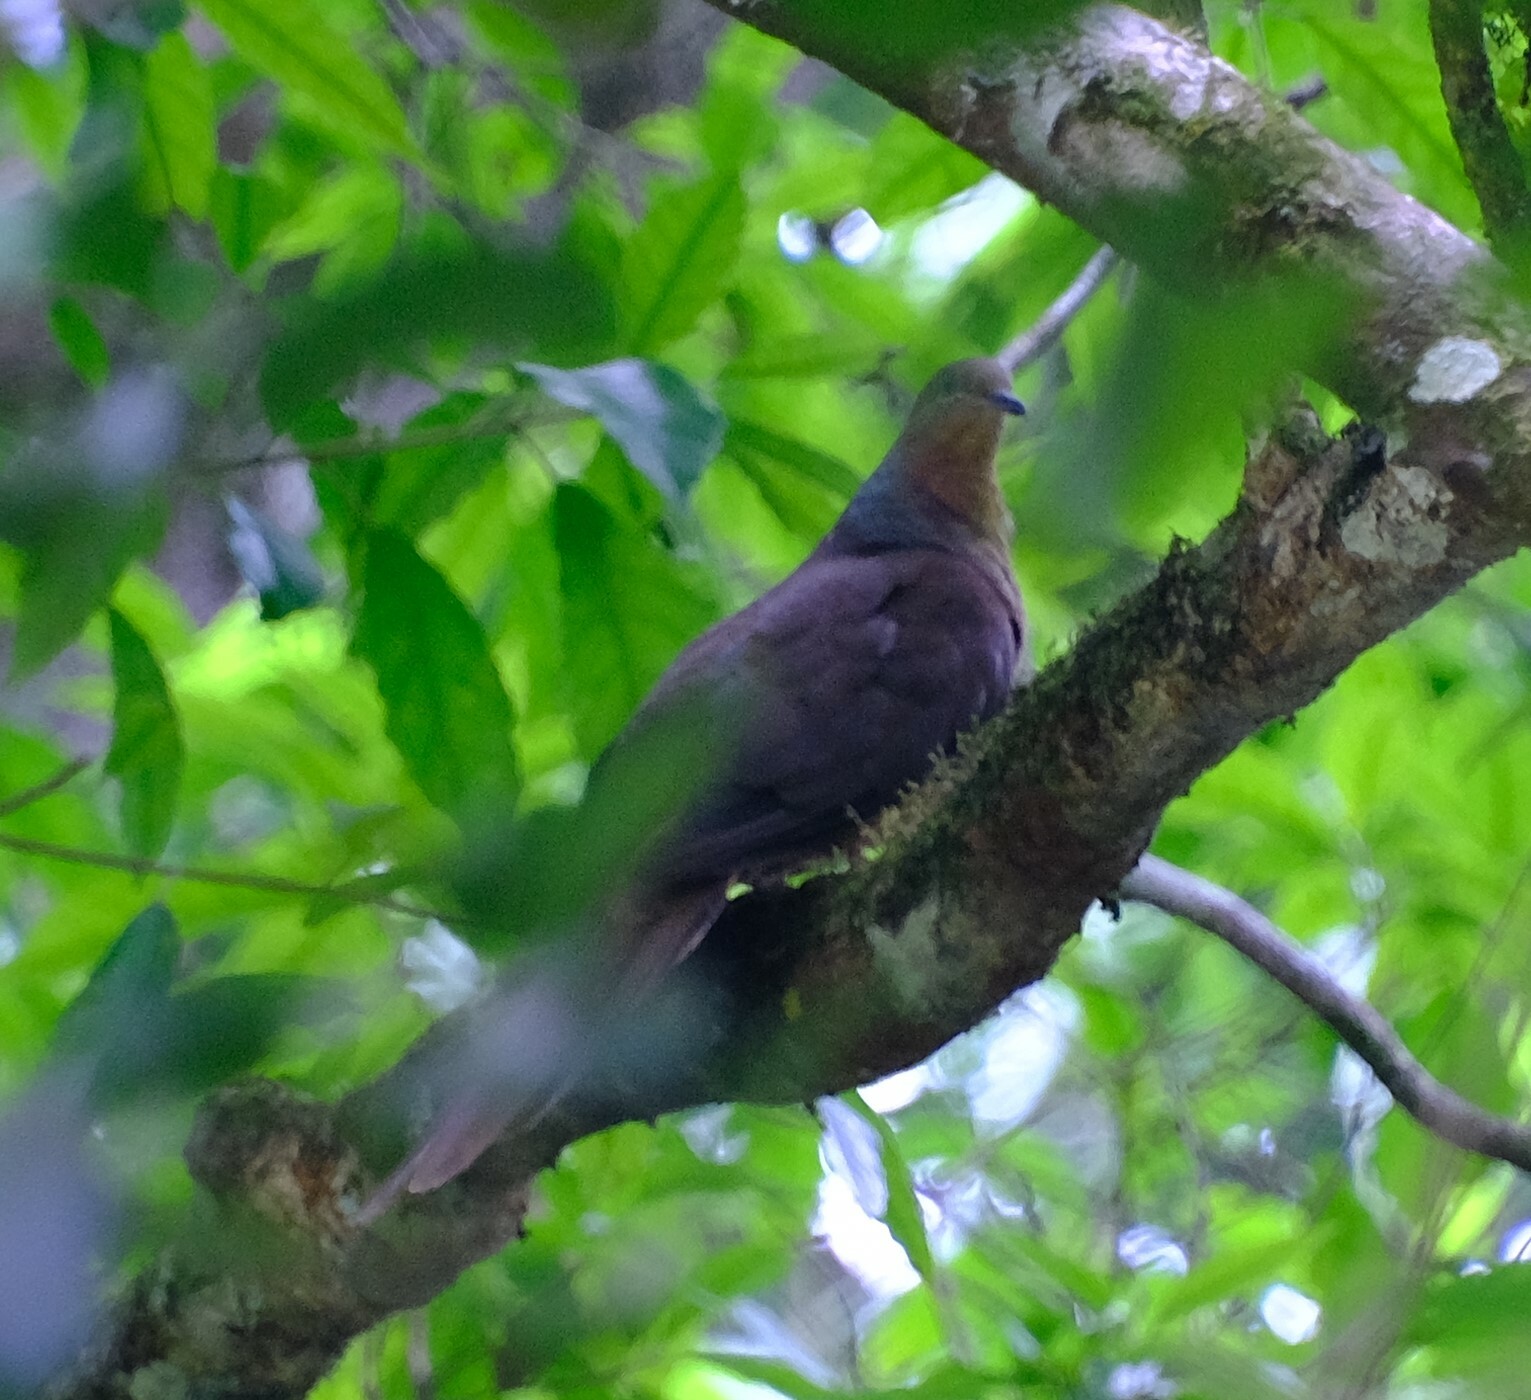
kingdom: Animalia
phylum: Chordata
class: Aves
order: Columbiformes
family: Columbidae
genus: Macropygia
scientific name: Macropygia phasianella
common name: Brown cuckoo-dove
